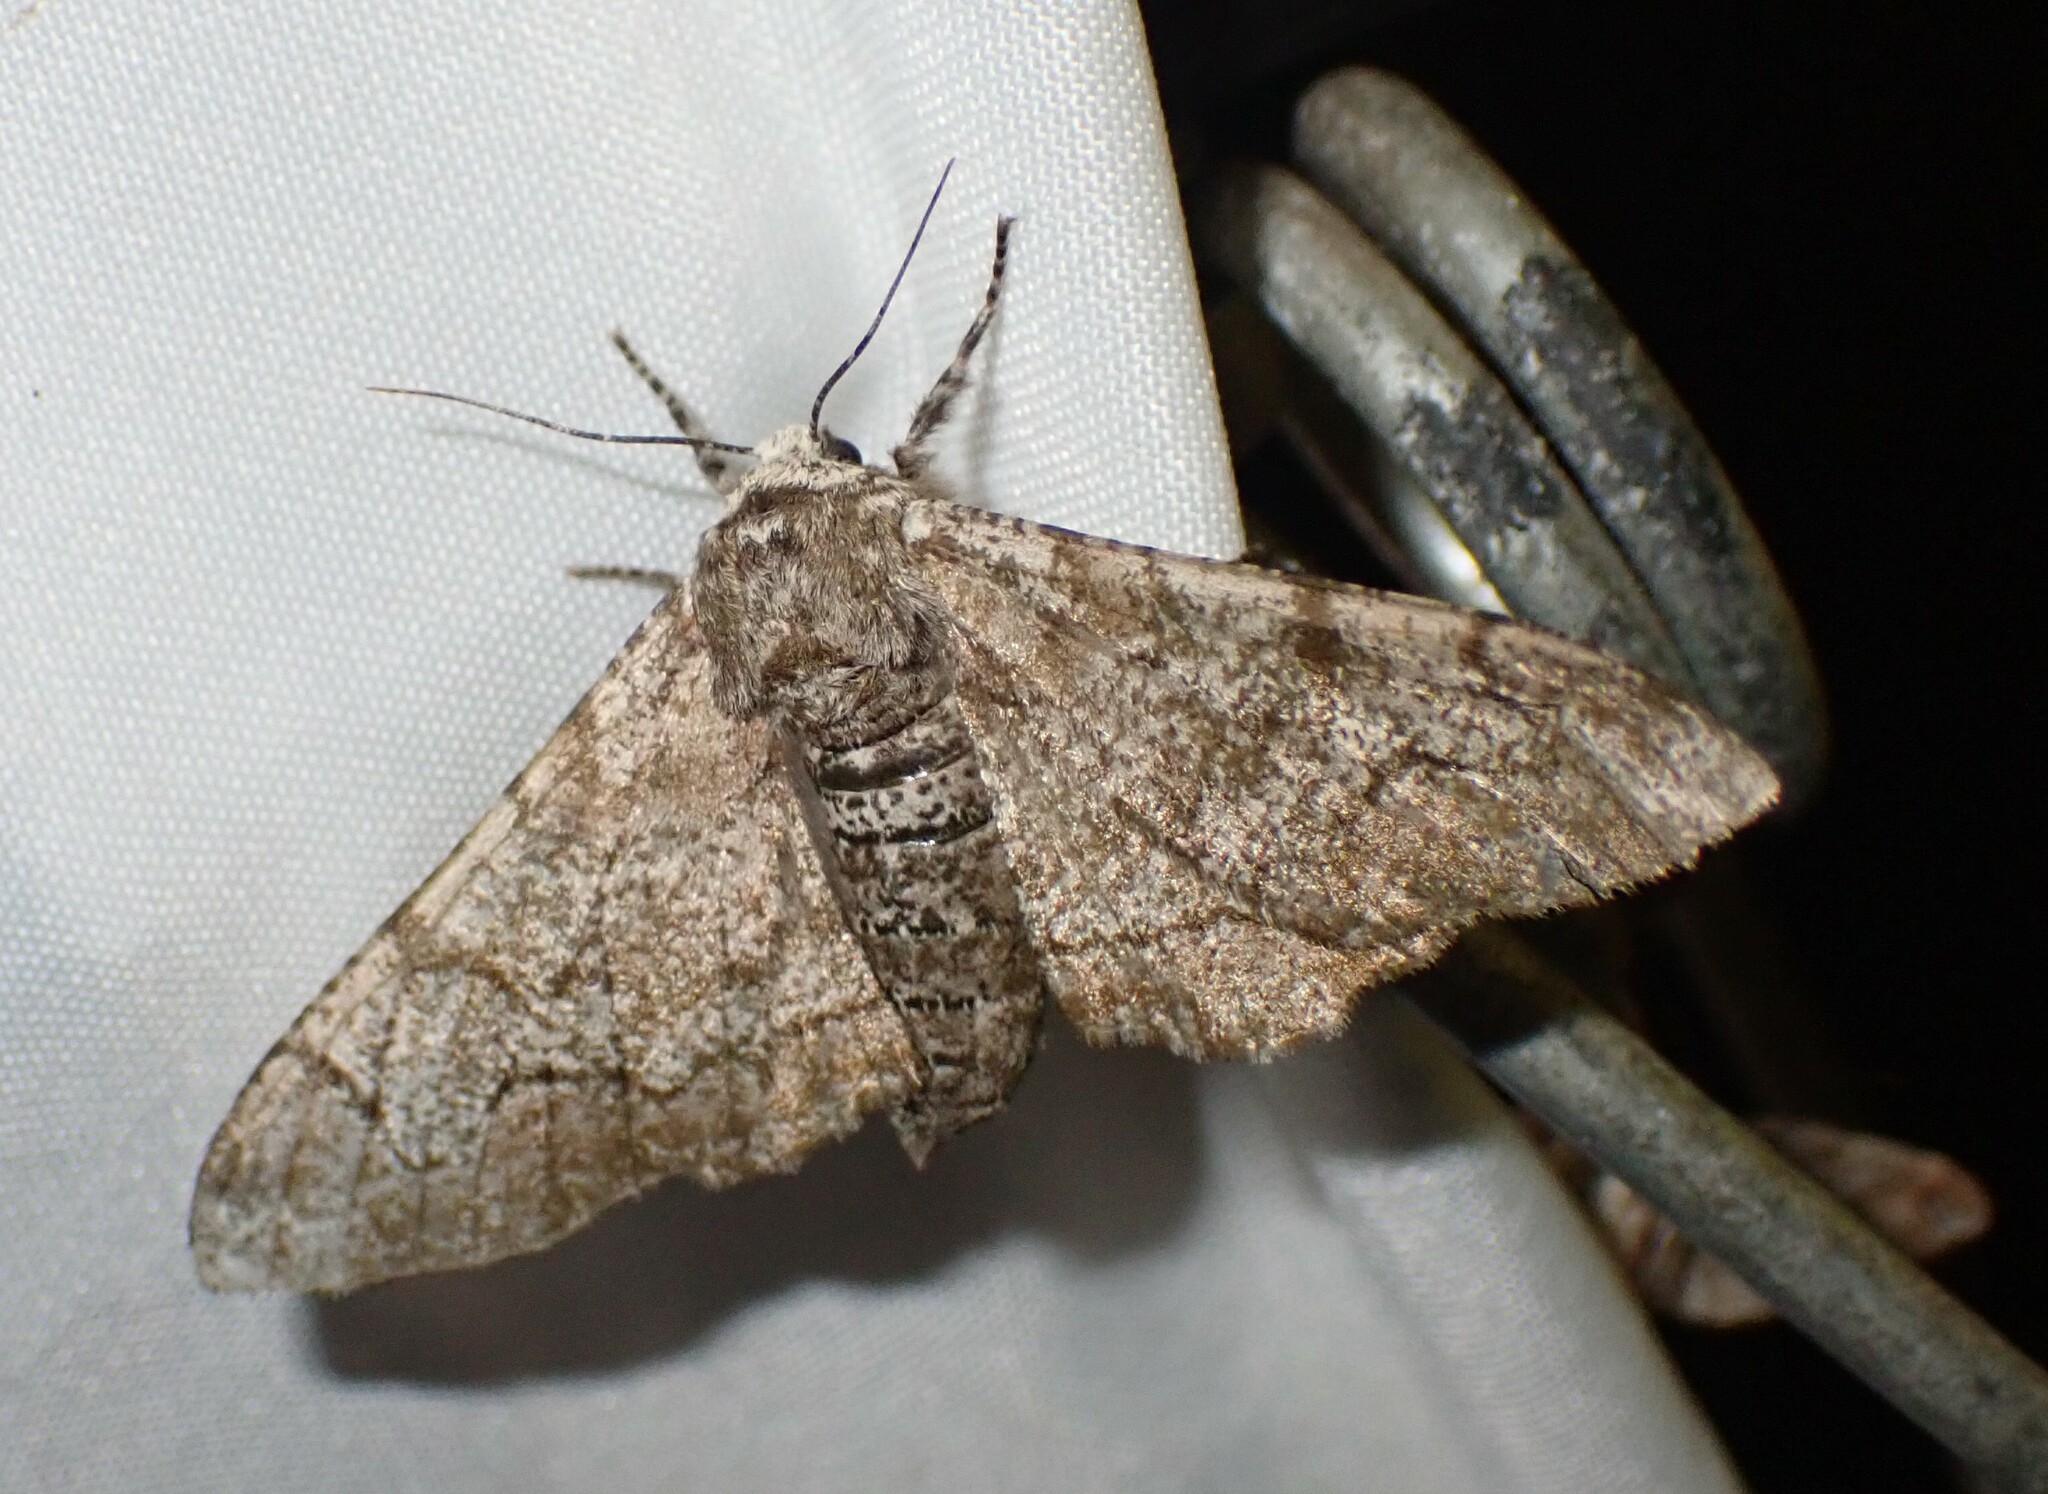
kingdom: Animalia
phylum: Arthropoda
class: Insecta
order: Lepidoptera
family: Geometridae
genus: Biston
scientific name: Biston betularia
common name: Peppered moth
